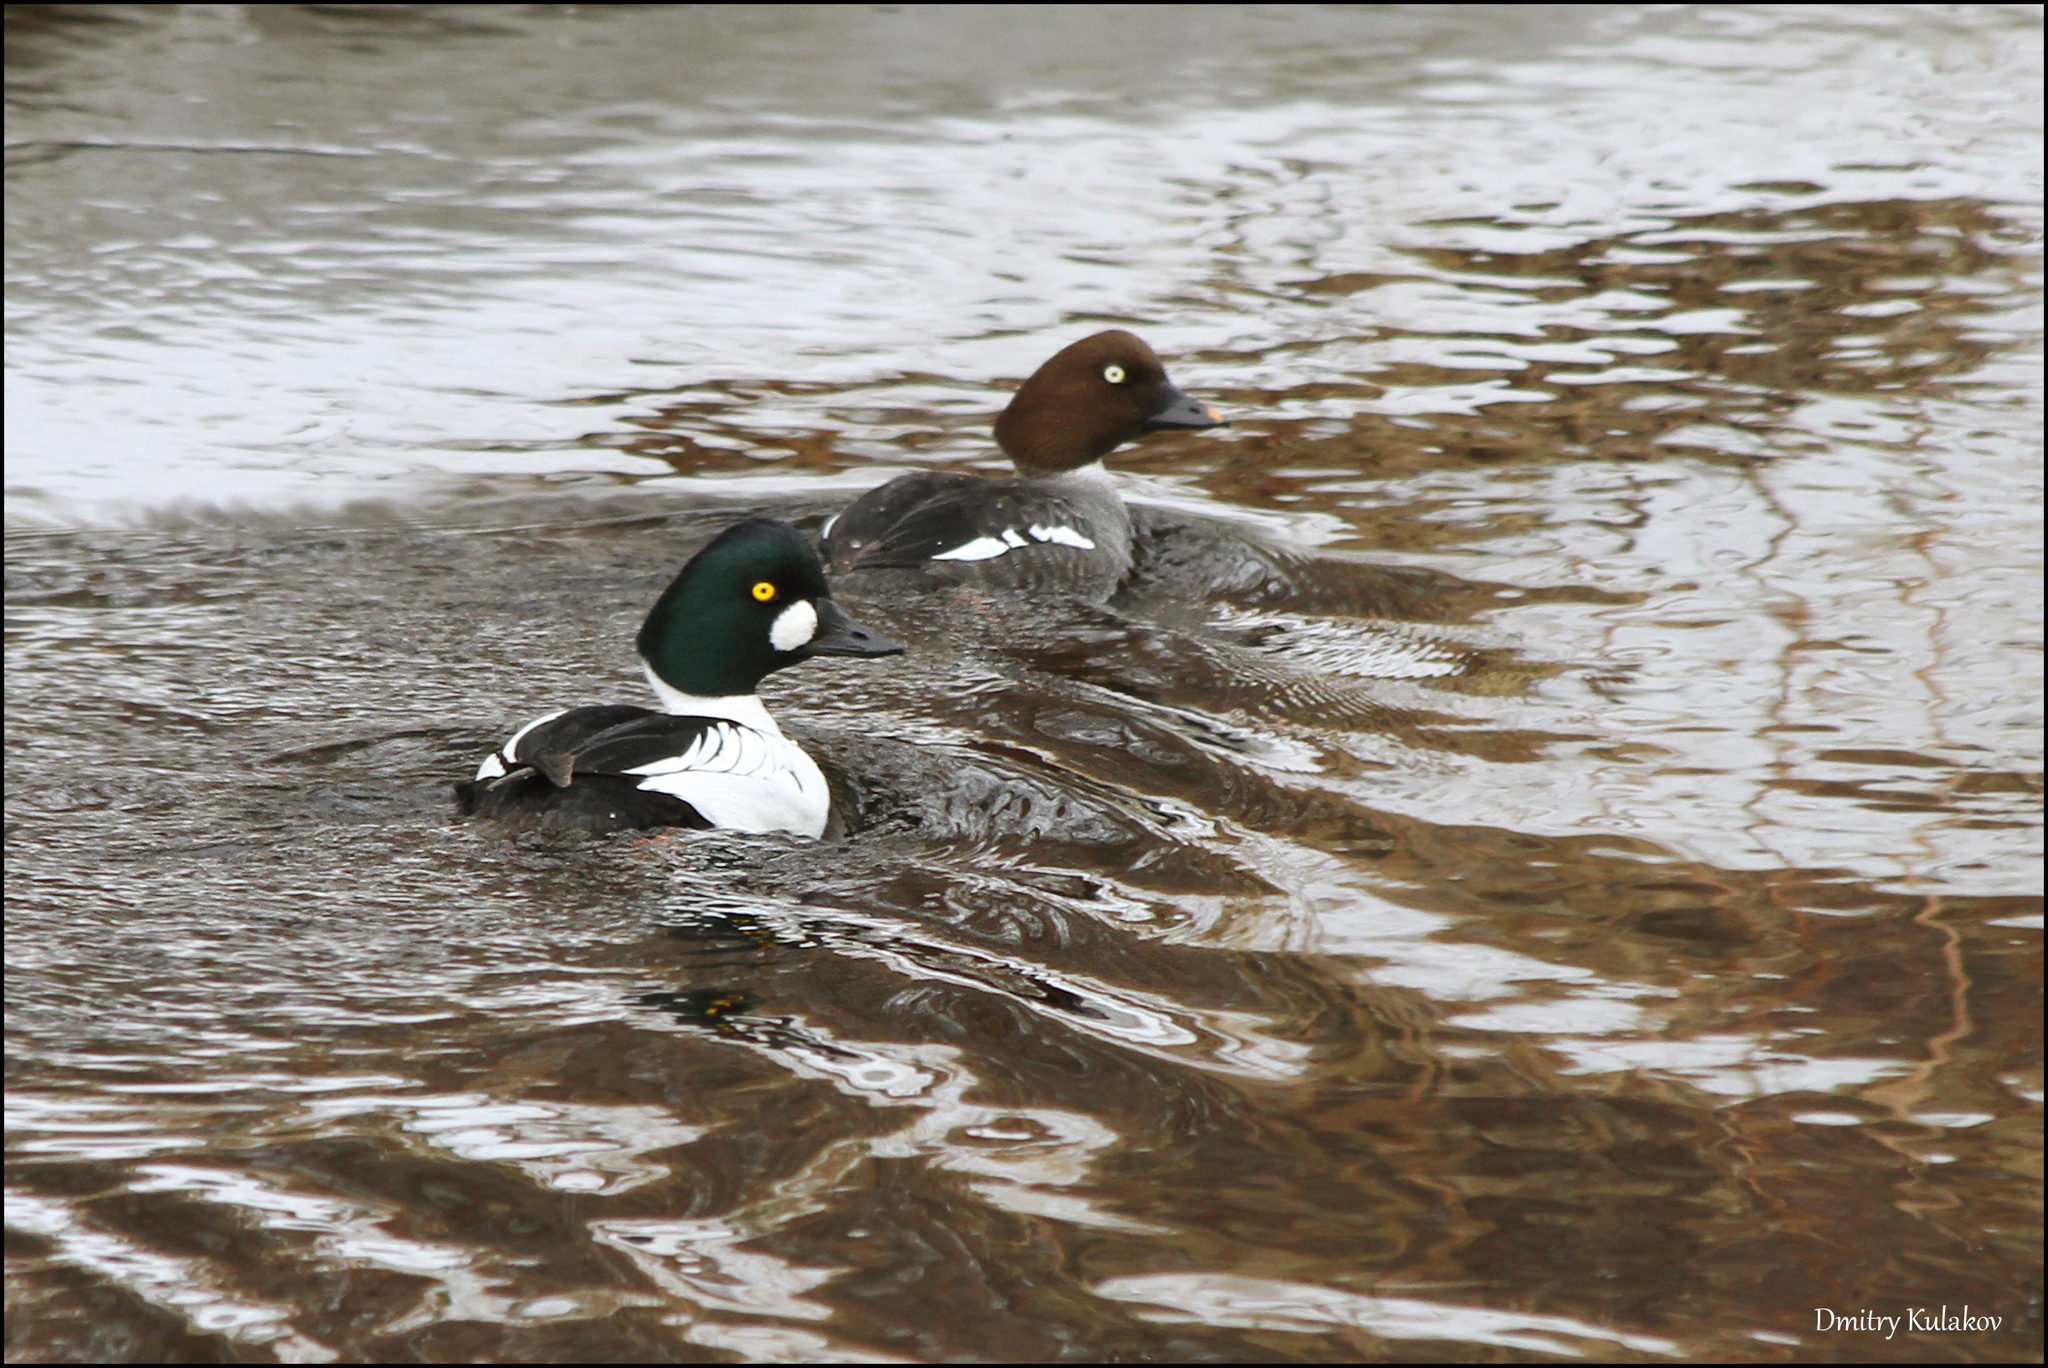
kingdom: Animalia
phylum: Chordata
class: Aves
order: Anseriformes
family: Anatidae
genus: Bucephala
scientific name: Bucephala clangula
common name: Common goldeneye
